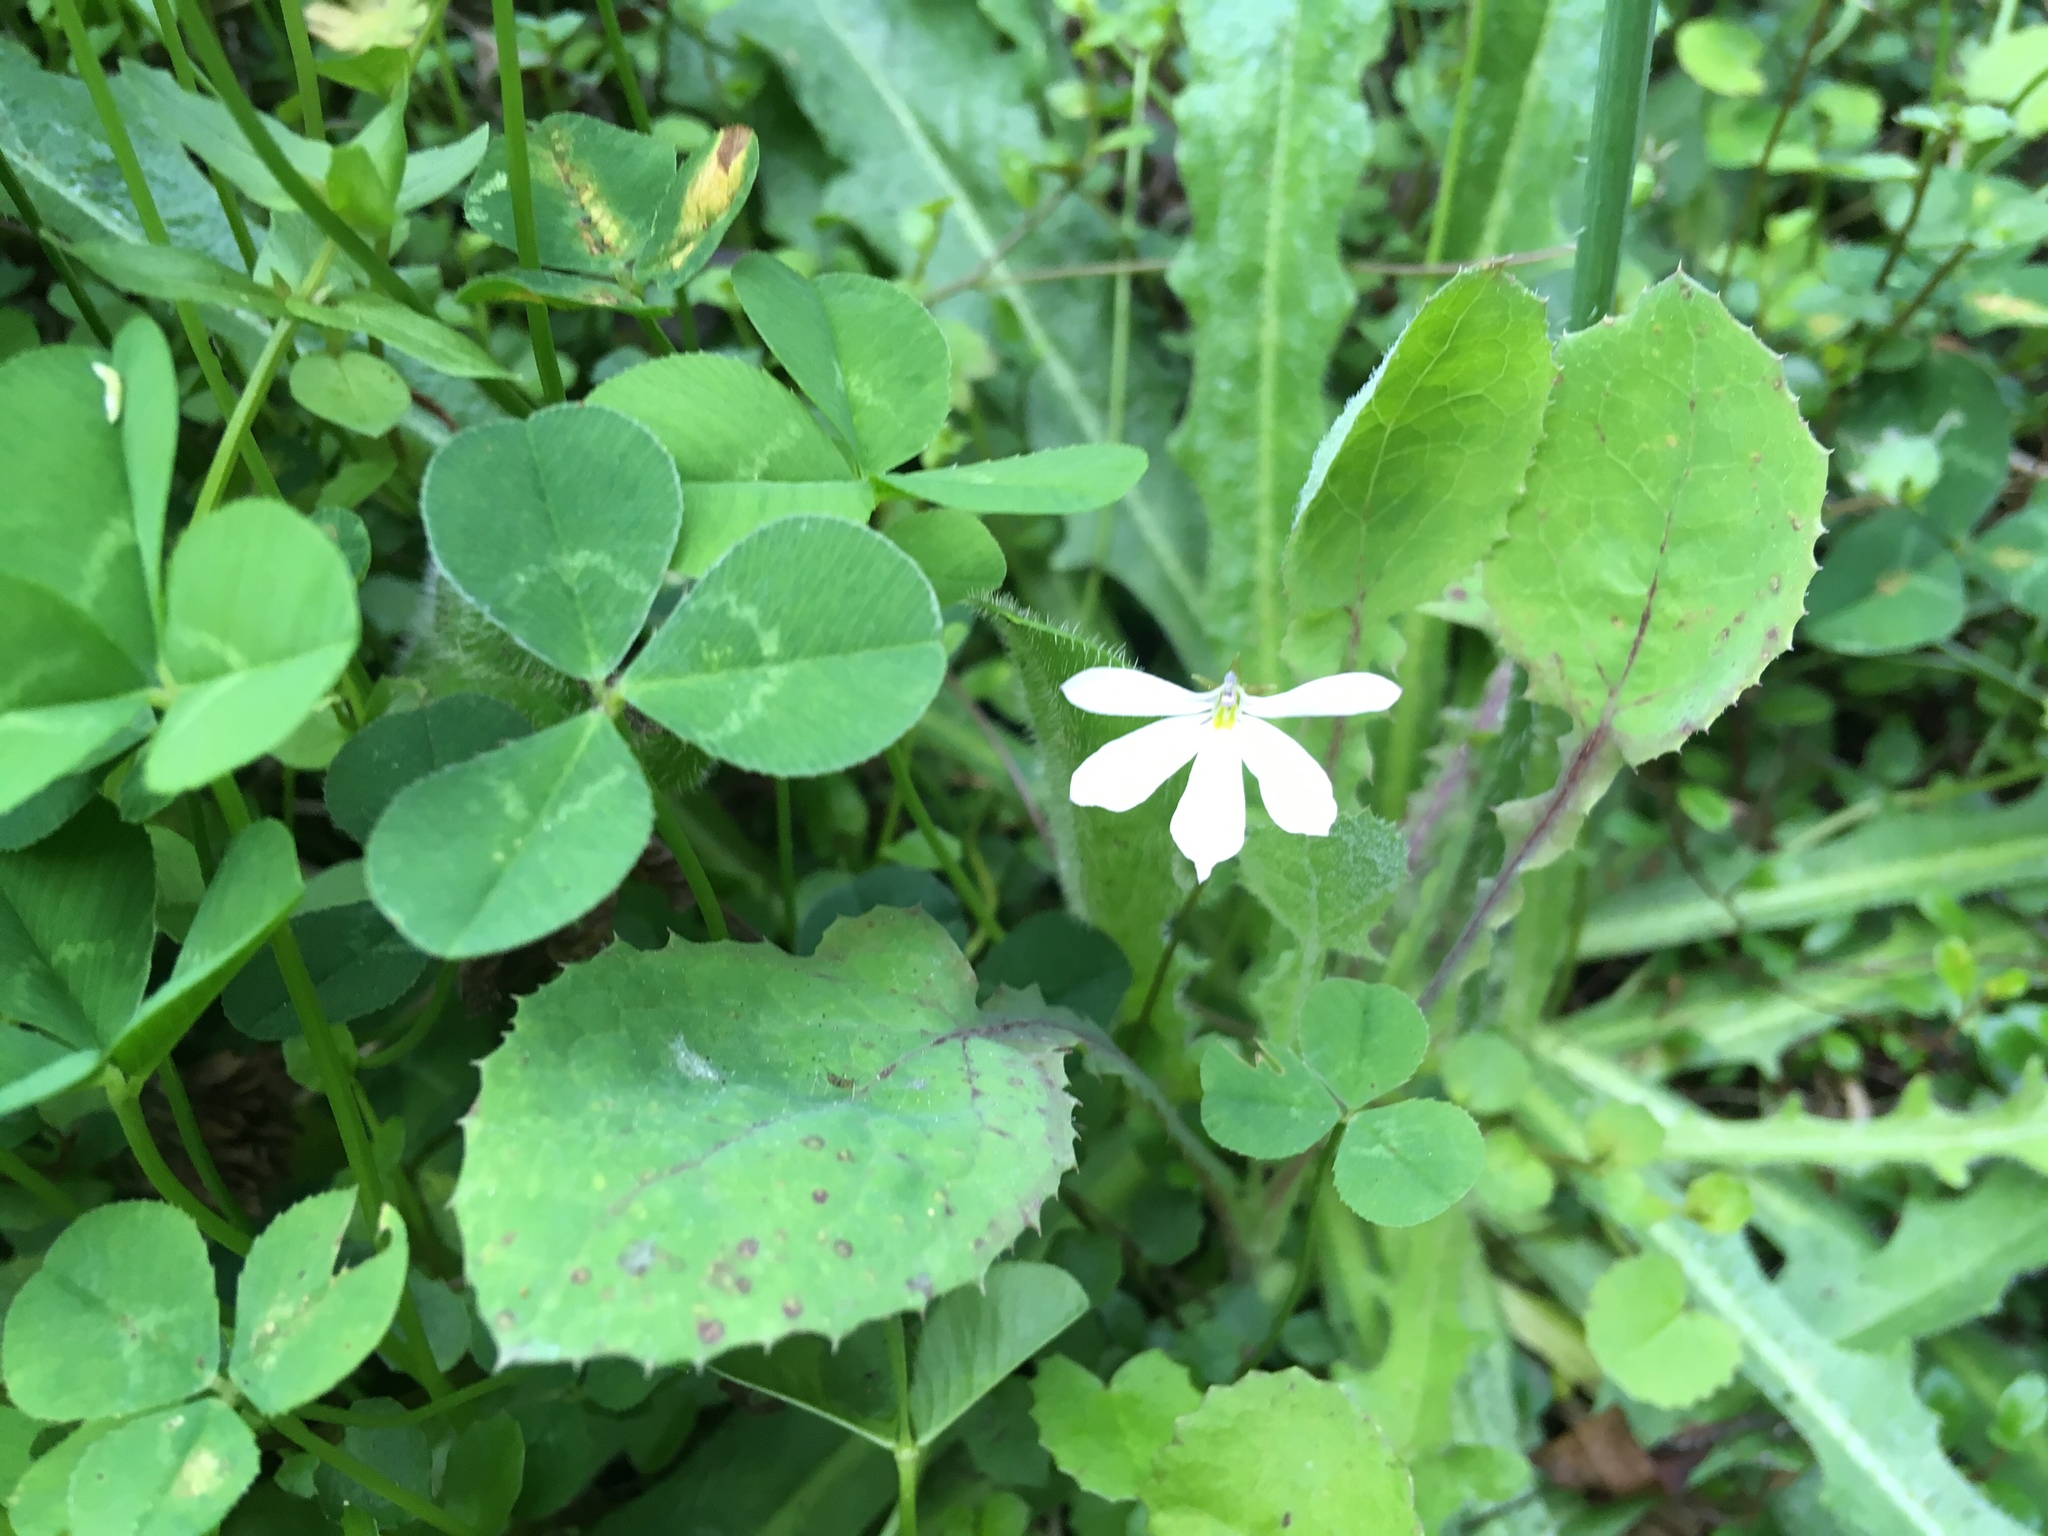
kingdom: Plantae
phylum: Tracheophyta
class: Magnoliopsida
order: Asterales
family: Campanulaceae
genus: Lobelia
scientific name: Lobelia angulata
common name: Lawn lobelia
